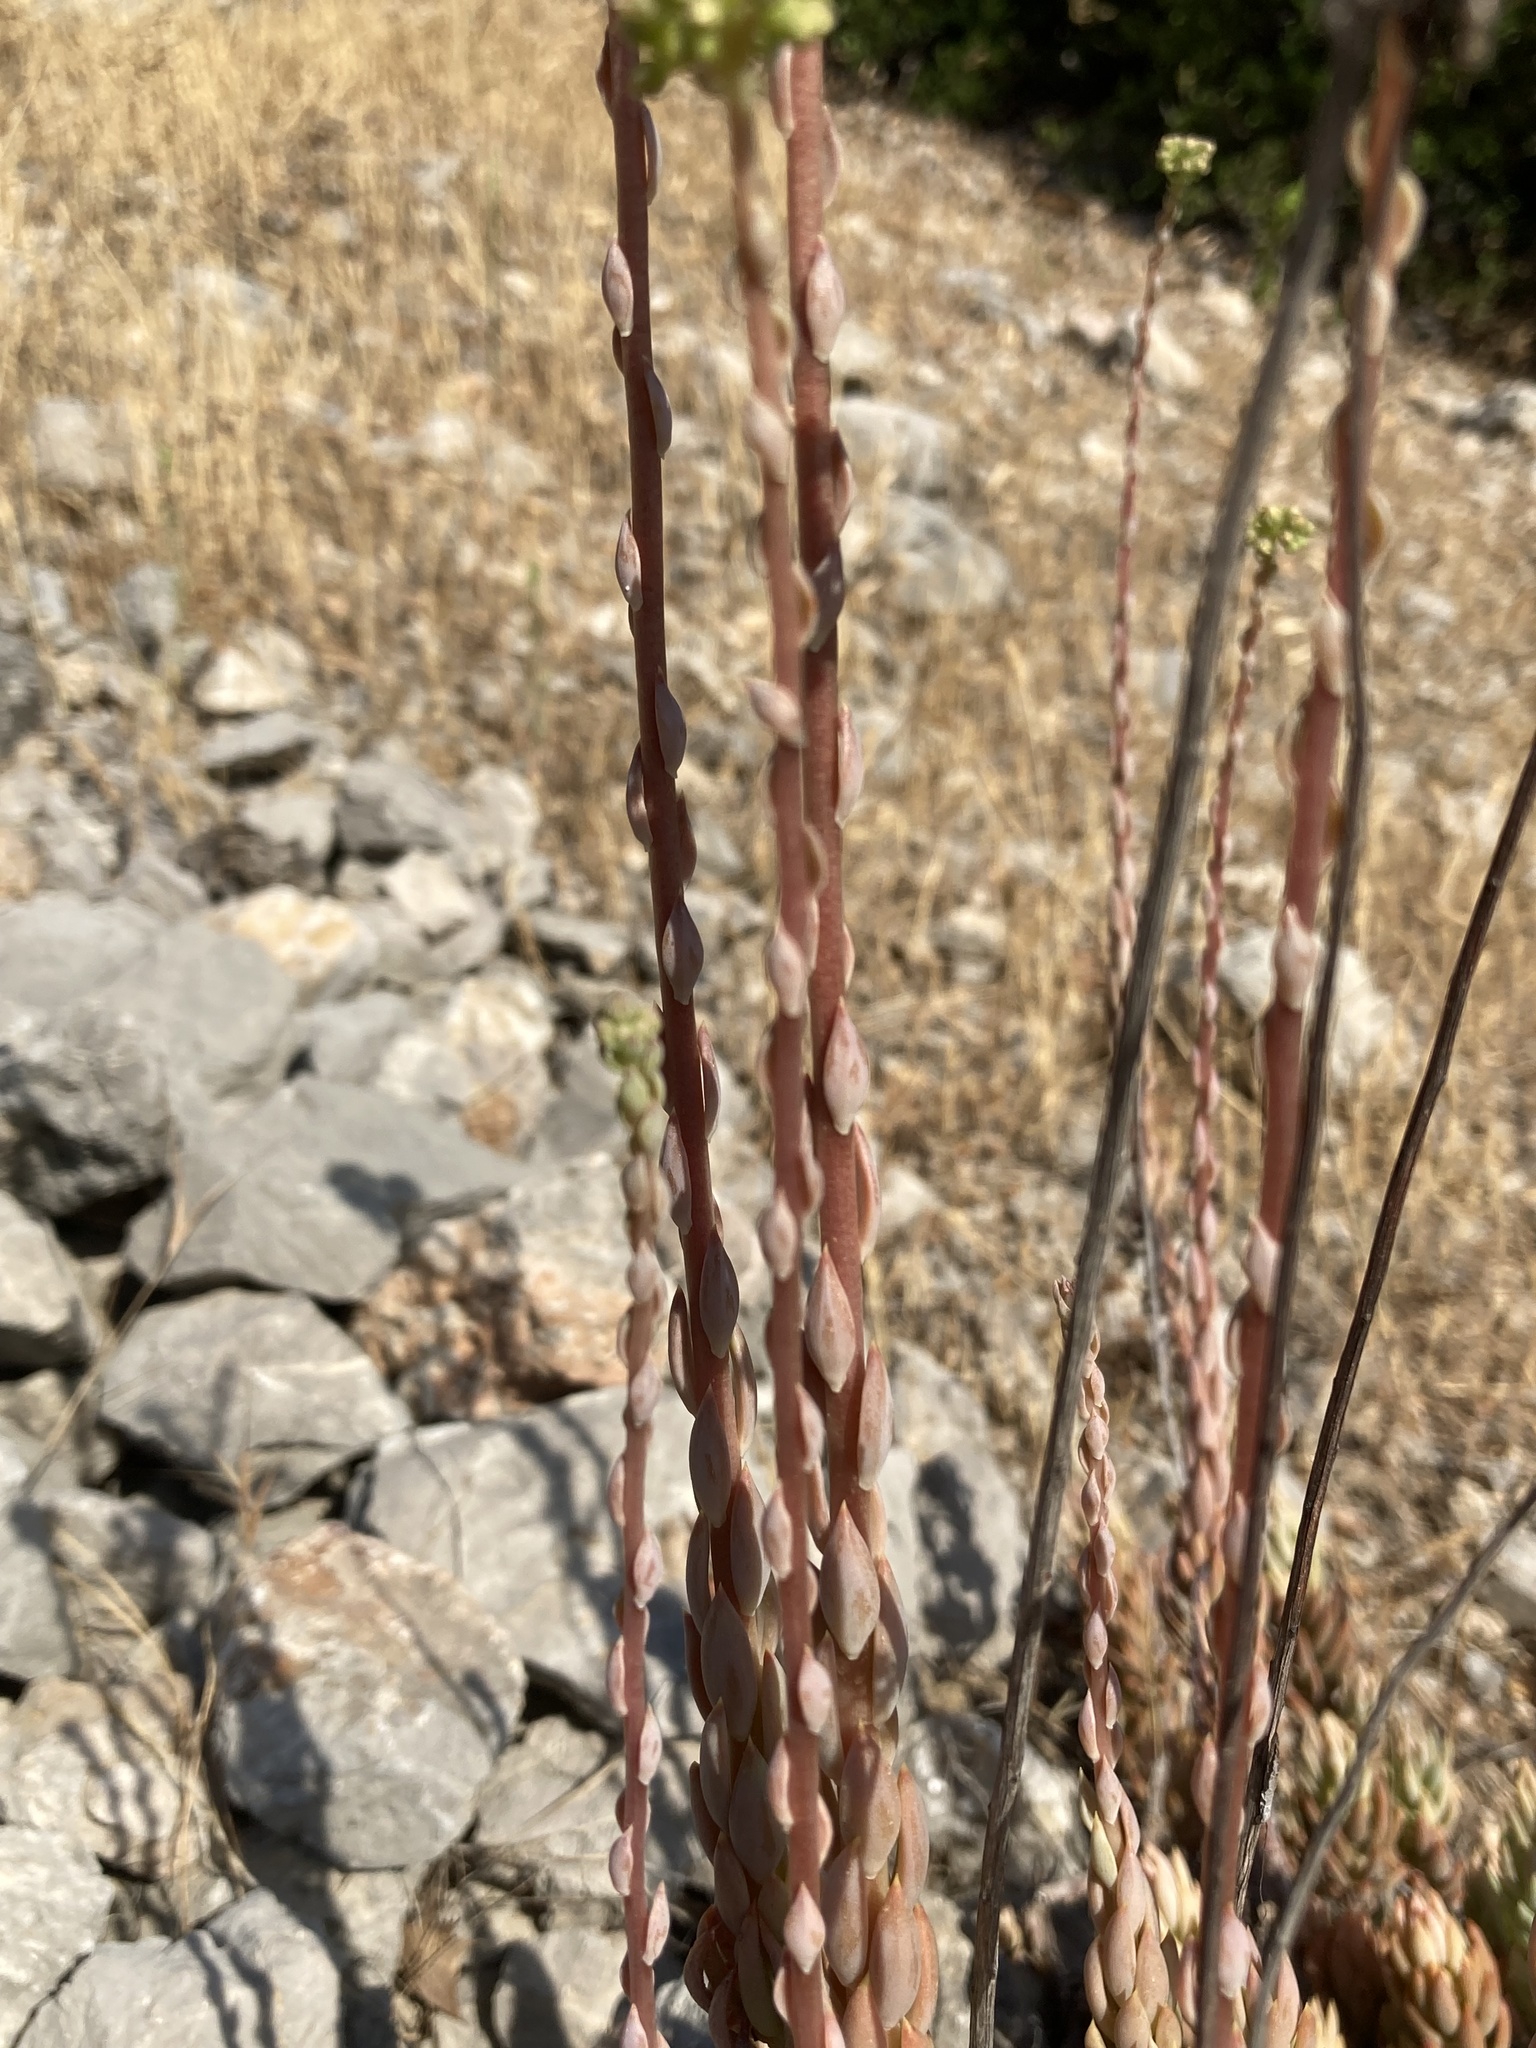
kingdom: Plantae
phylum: Tracheophyta
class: Magnoliopsida
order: Saxifragales
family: Crassulaceae
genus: Petrosedum
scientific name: Petrosedum sediforme
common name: Pale stonecrop
